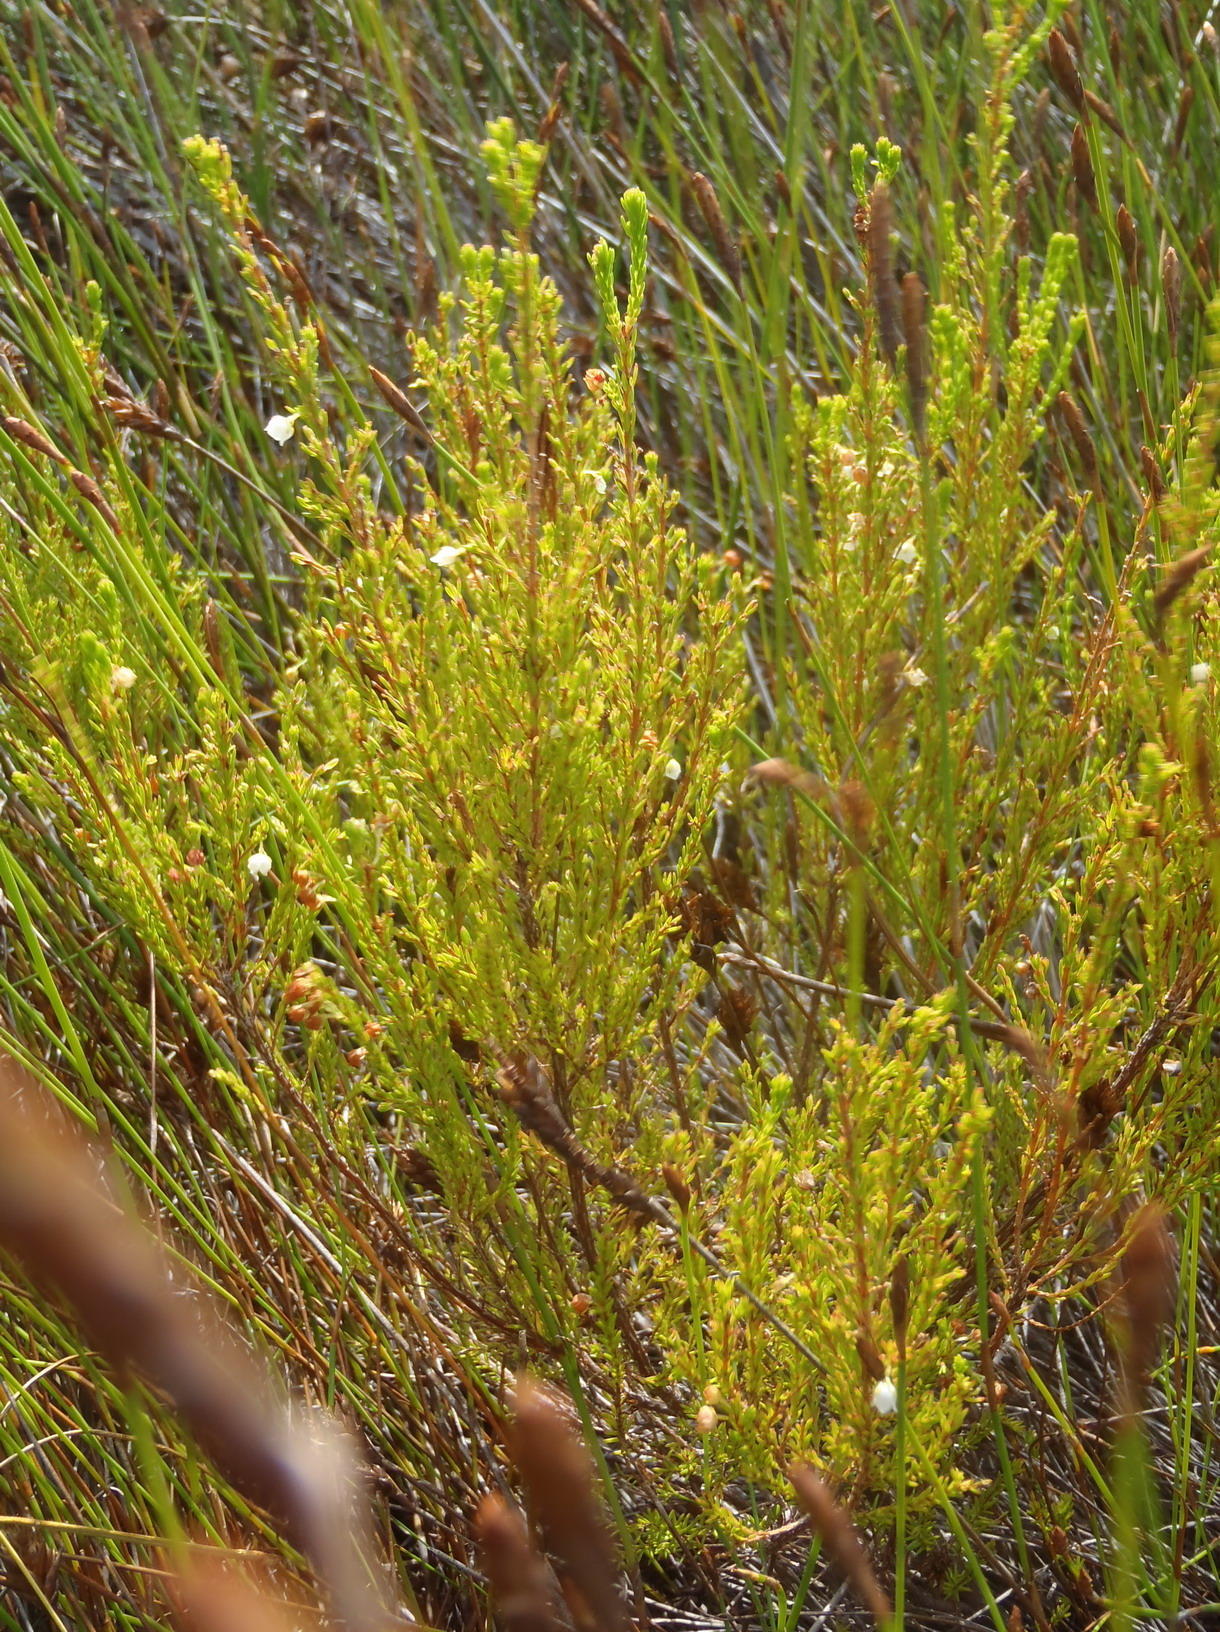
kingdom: Plantae
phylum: Tracheophyta
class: Magnoliopsida
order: Ericales
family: Ericaceae
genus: Erica
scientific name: Erica capensis
